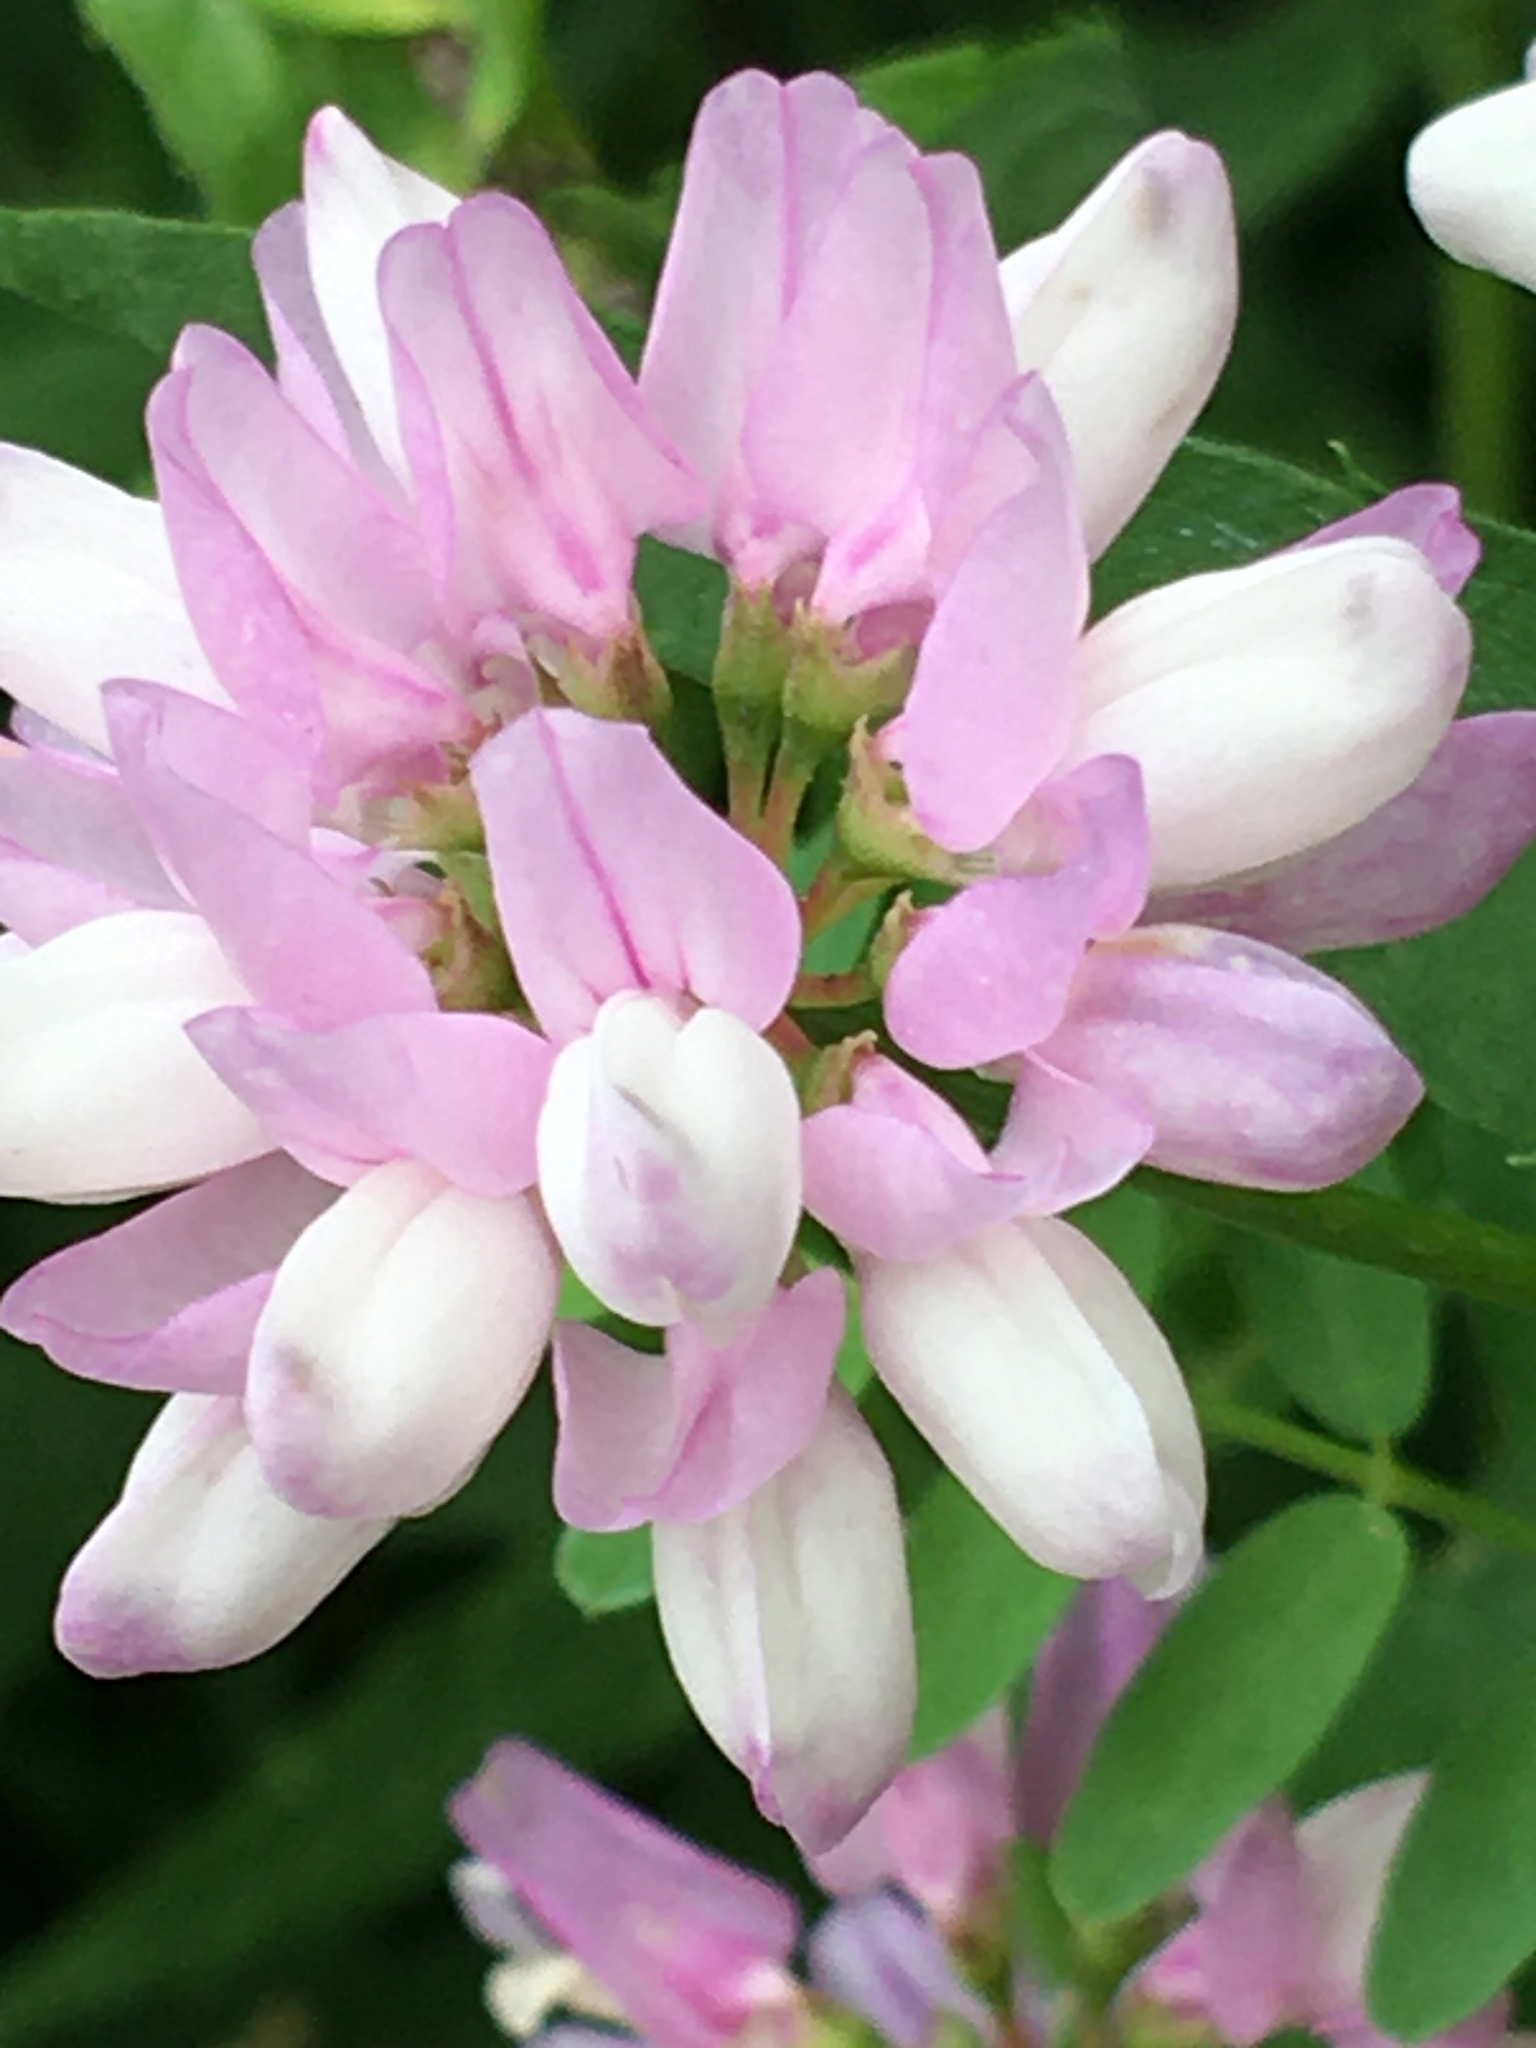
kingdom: Plantae
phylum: Tracheophyta
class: Magnoliopsida
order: Fabales
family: Fabaceae
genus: Coronilla
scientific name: Coronilla varia
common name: Crownvetch
